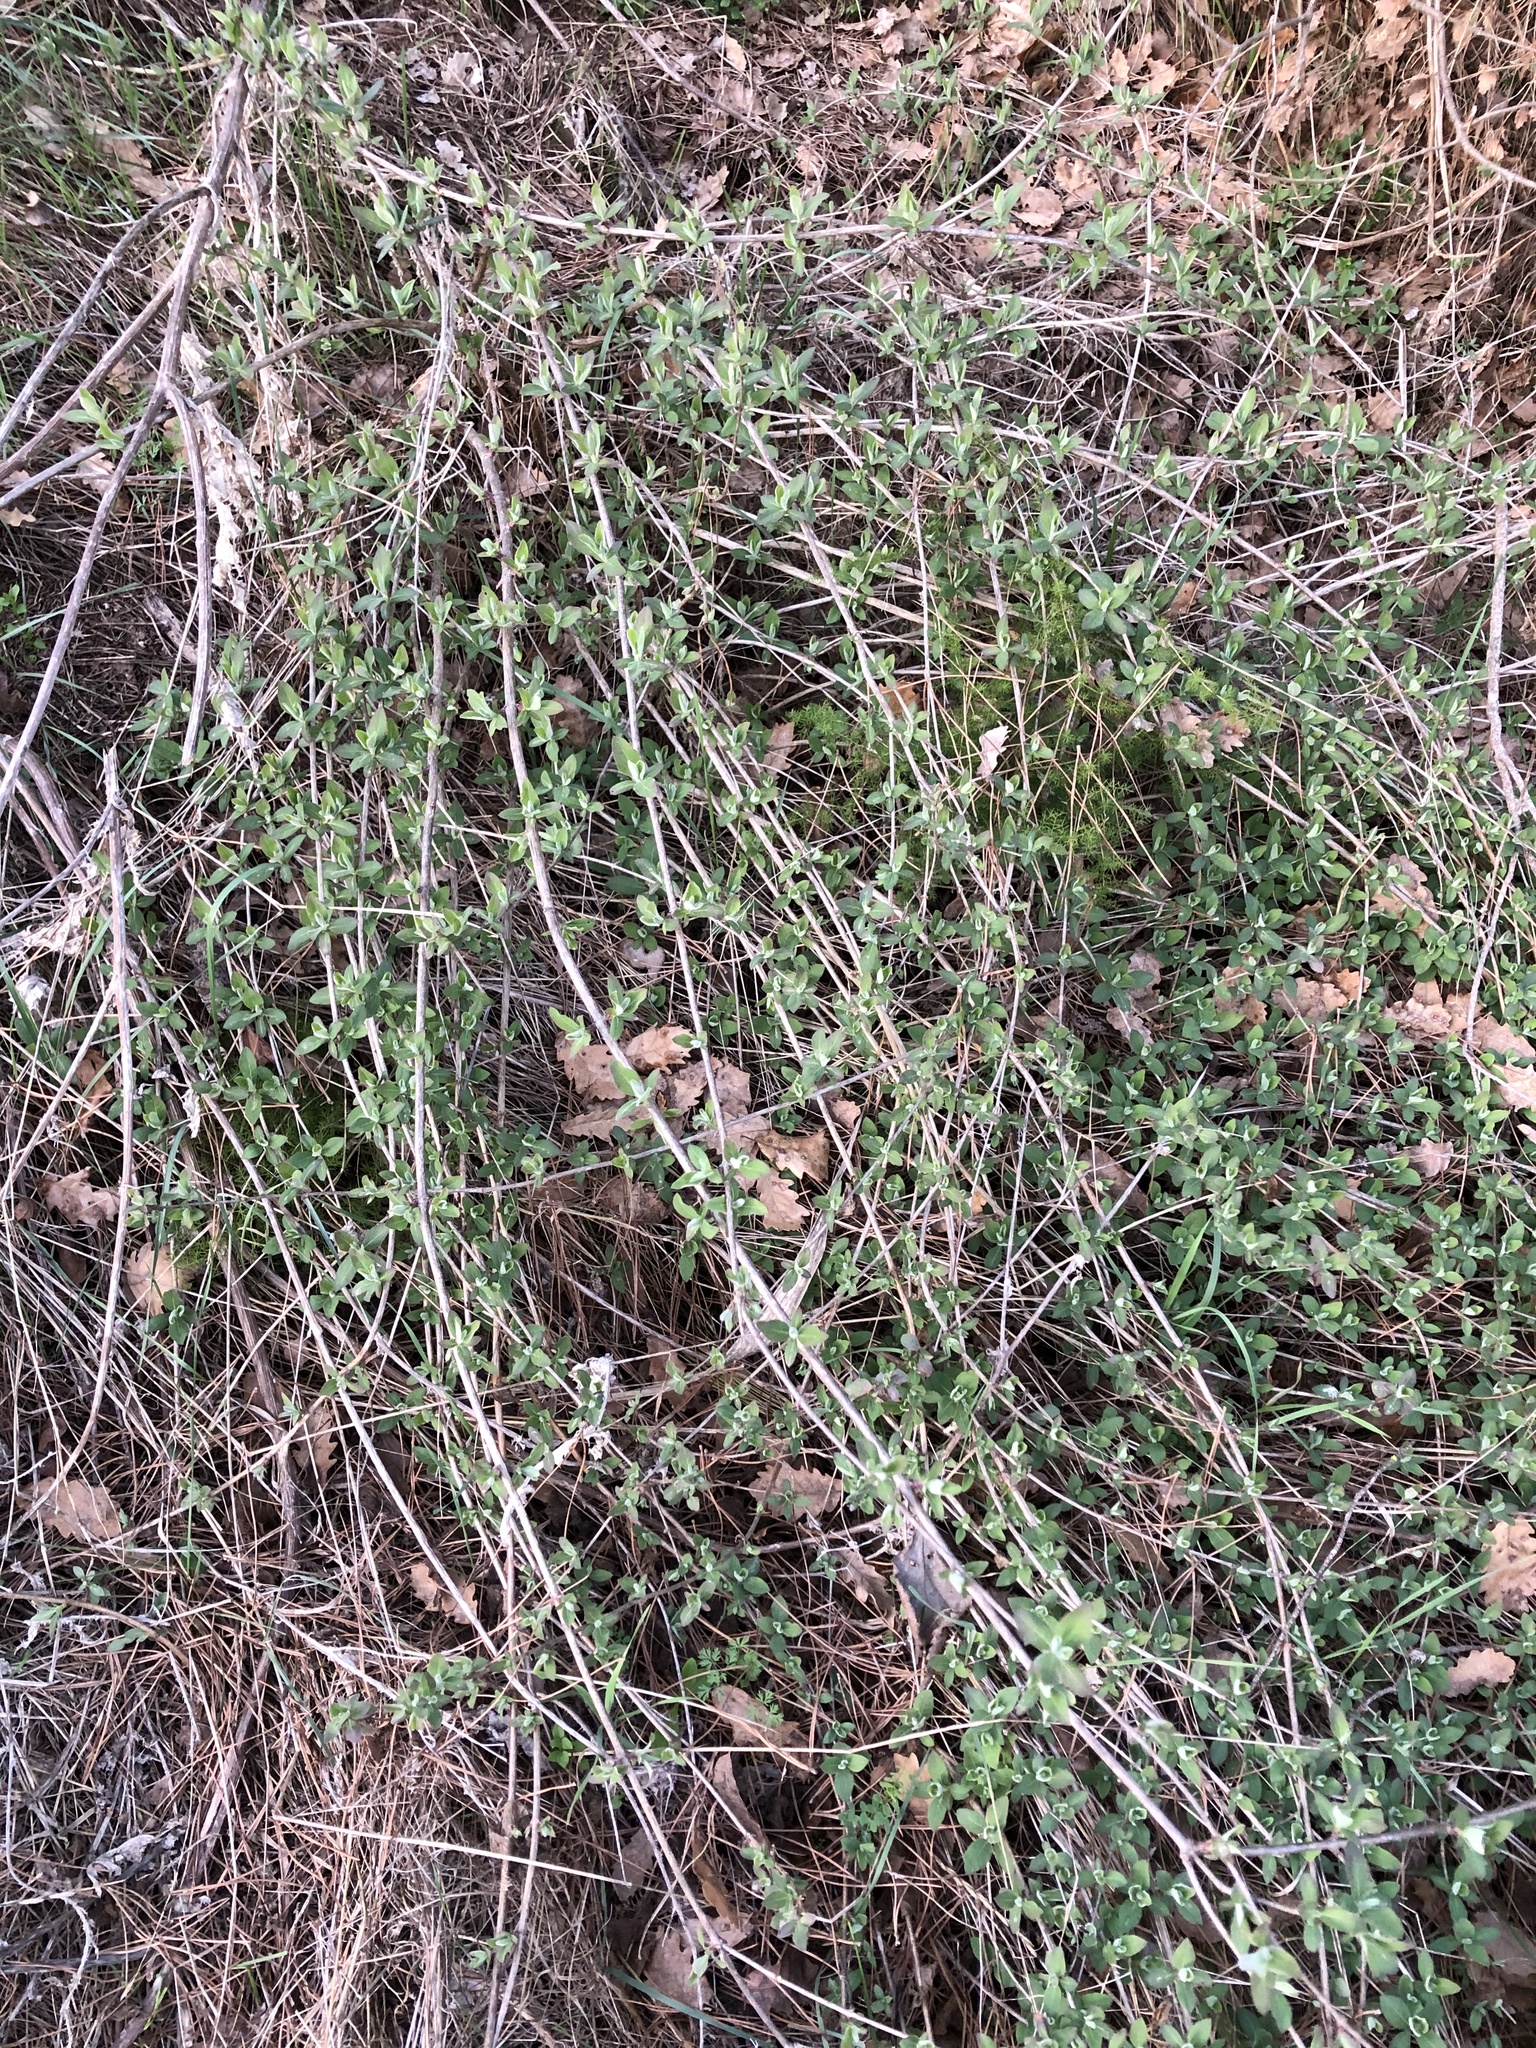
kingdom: Plantae
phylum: Tracheophyta
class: Magnoliopsida
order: Dipsacales
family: Caprifoliaceae
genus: Lonicera
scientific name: Lonicera etrusca
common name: Etruscan honeysuckle
